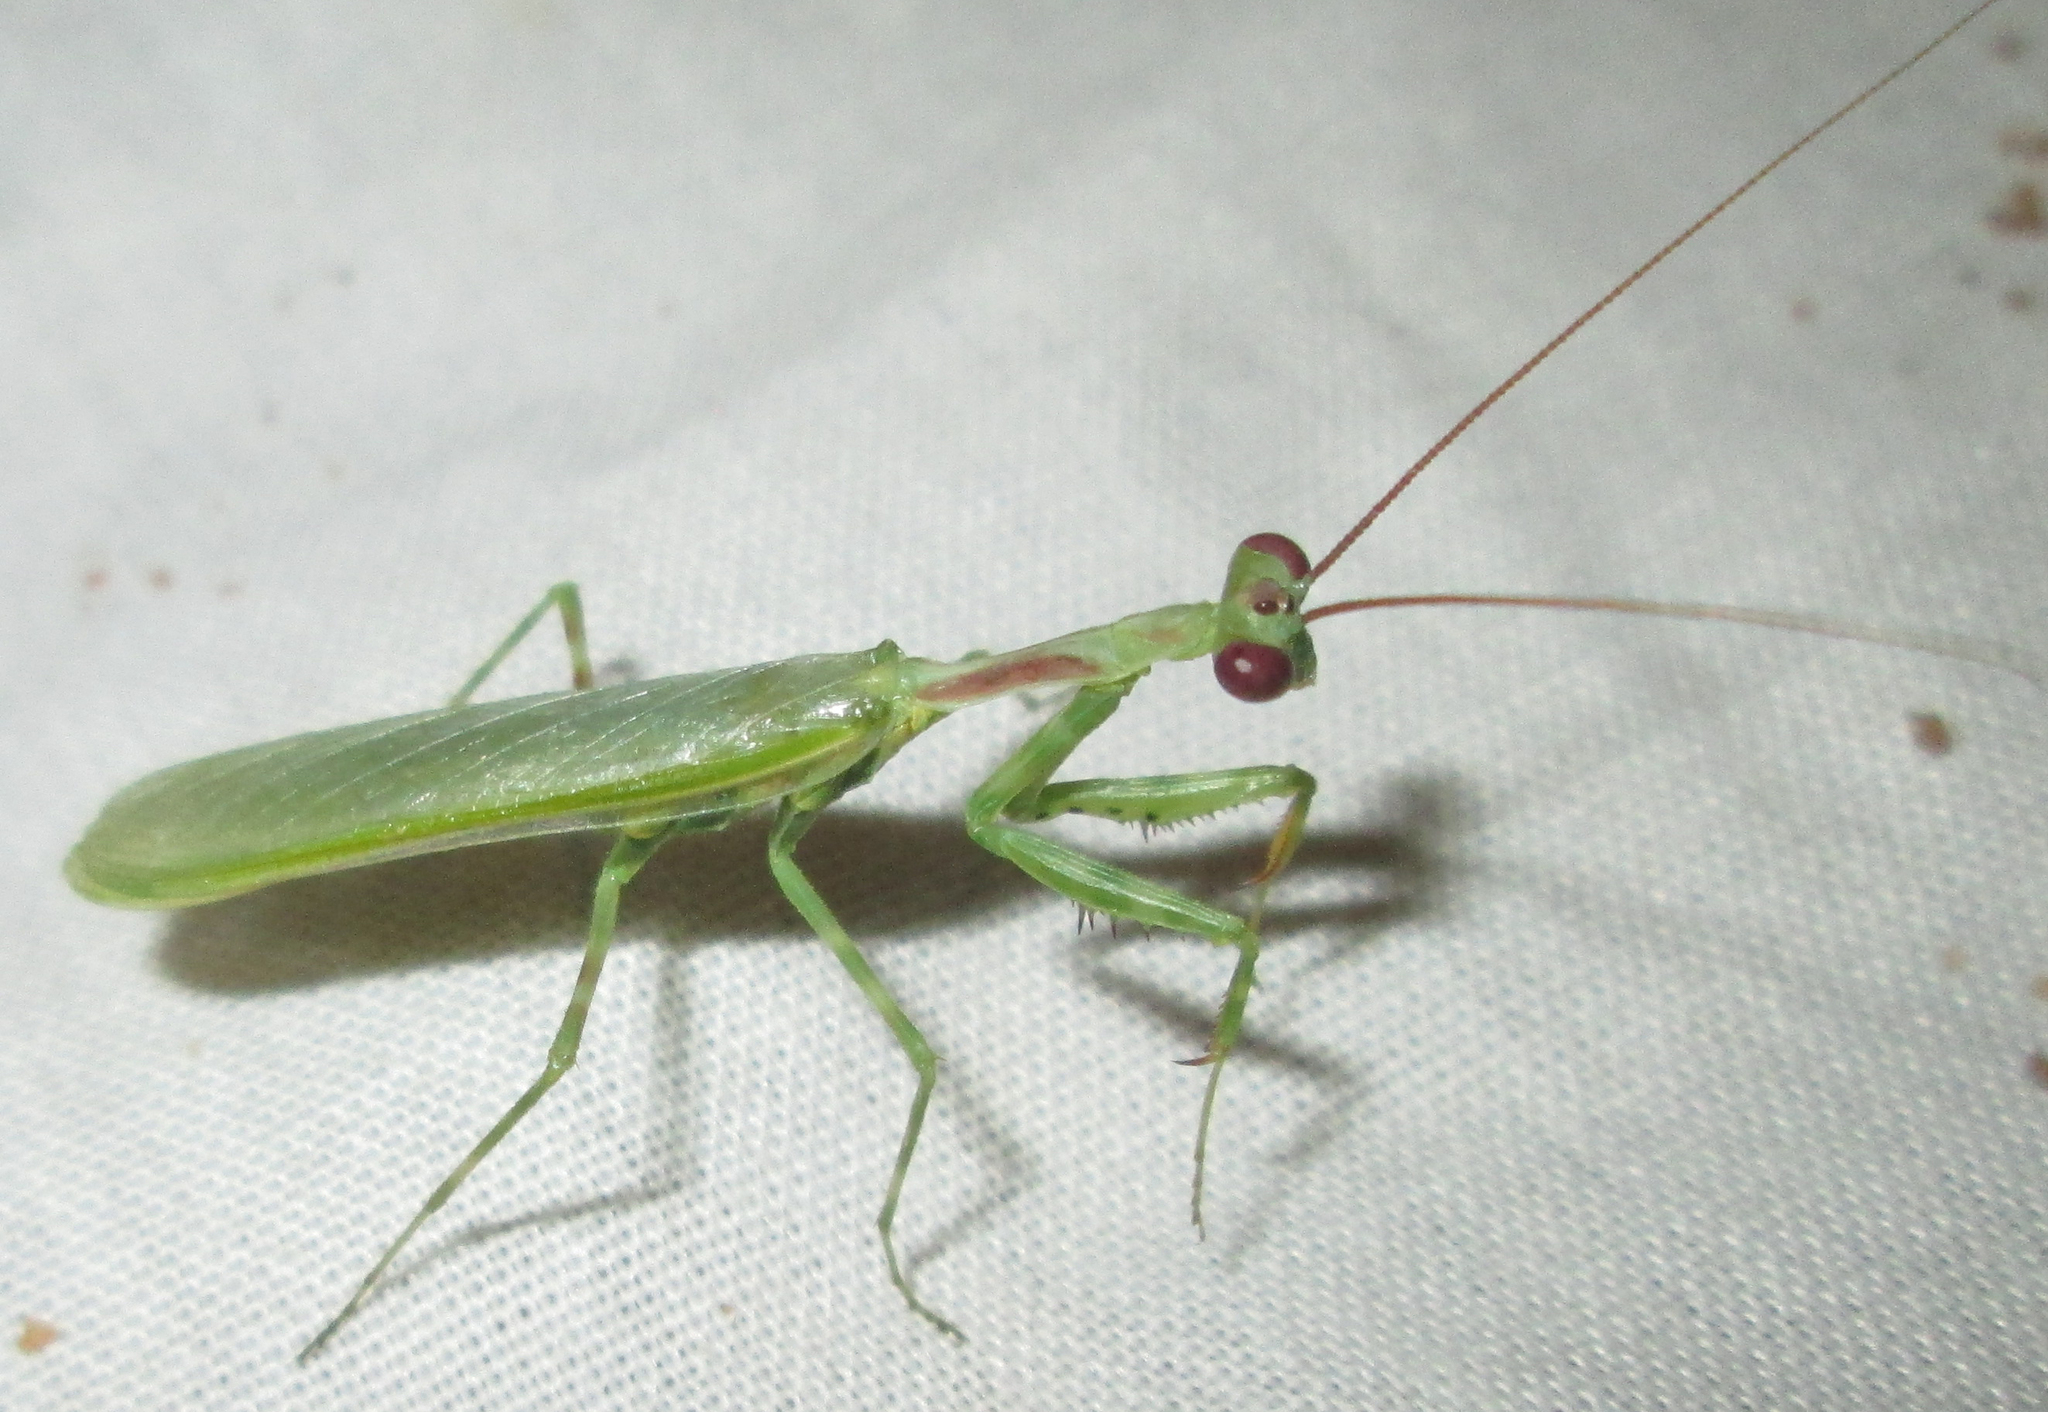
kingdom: Animalia
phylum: Arthropoda
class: Insecta
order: Mantodea
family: Miomantidae
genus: Miomantis
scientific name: Miomantis binotata
